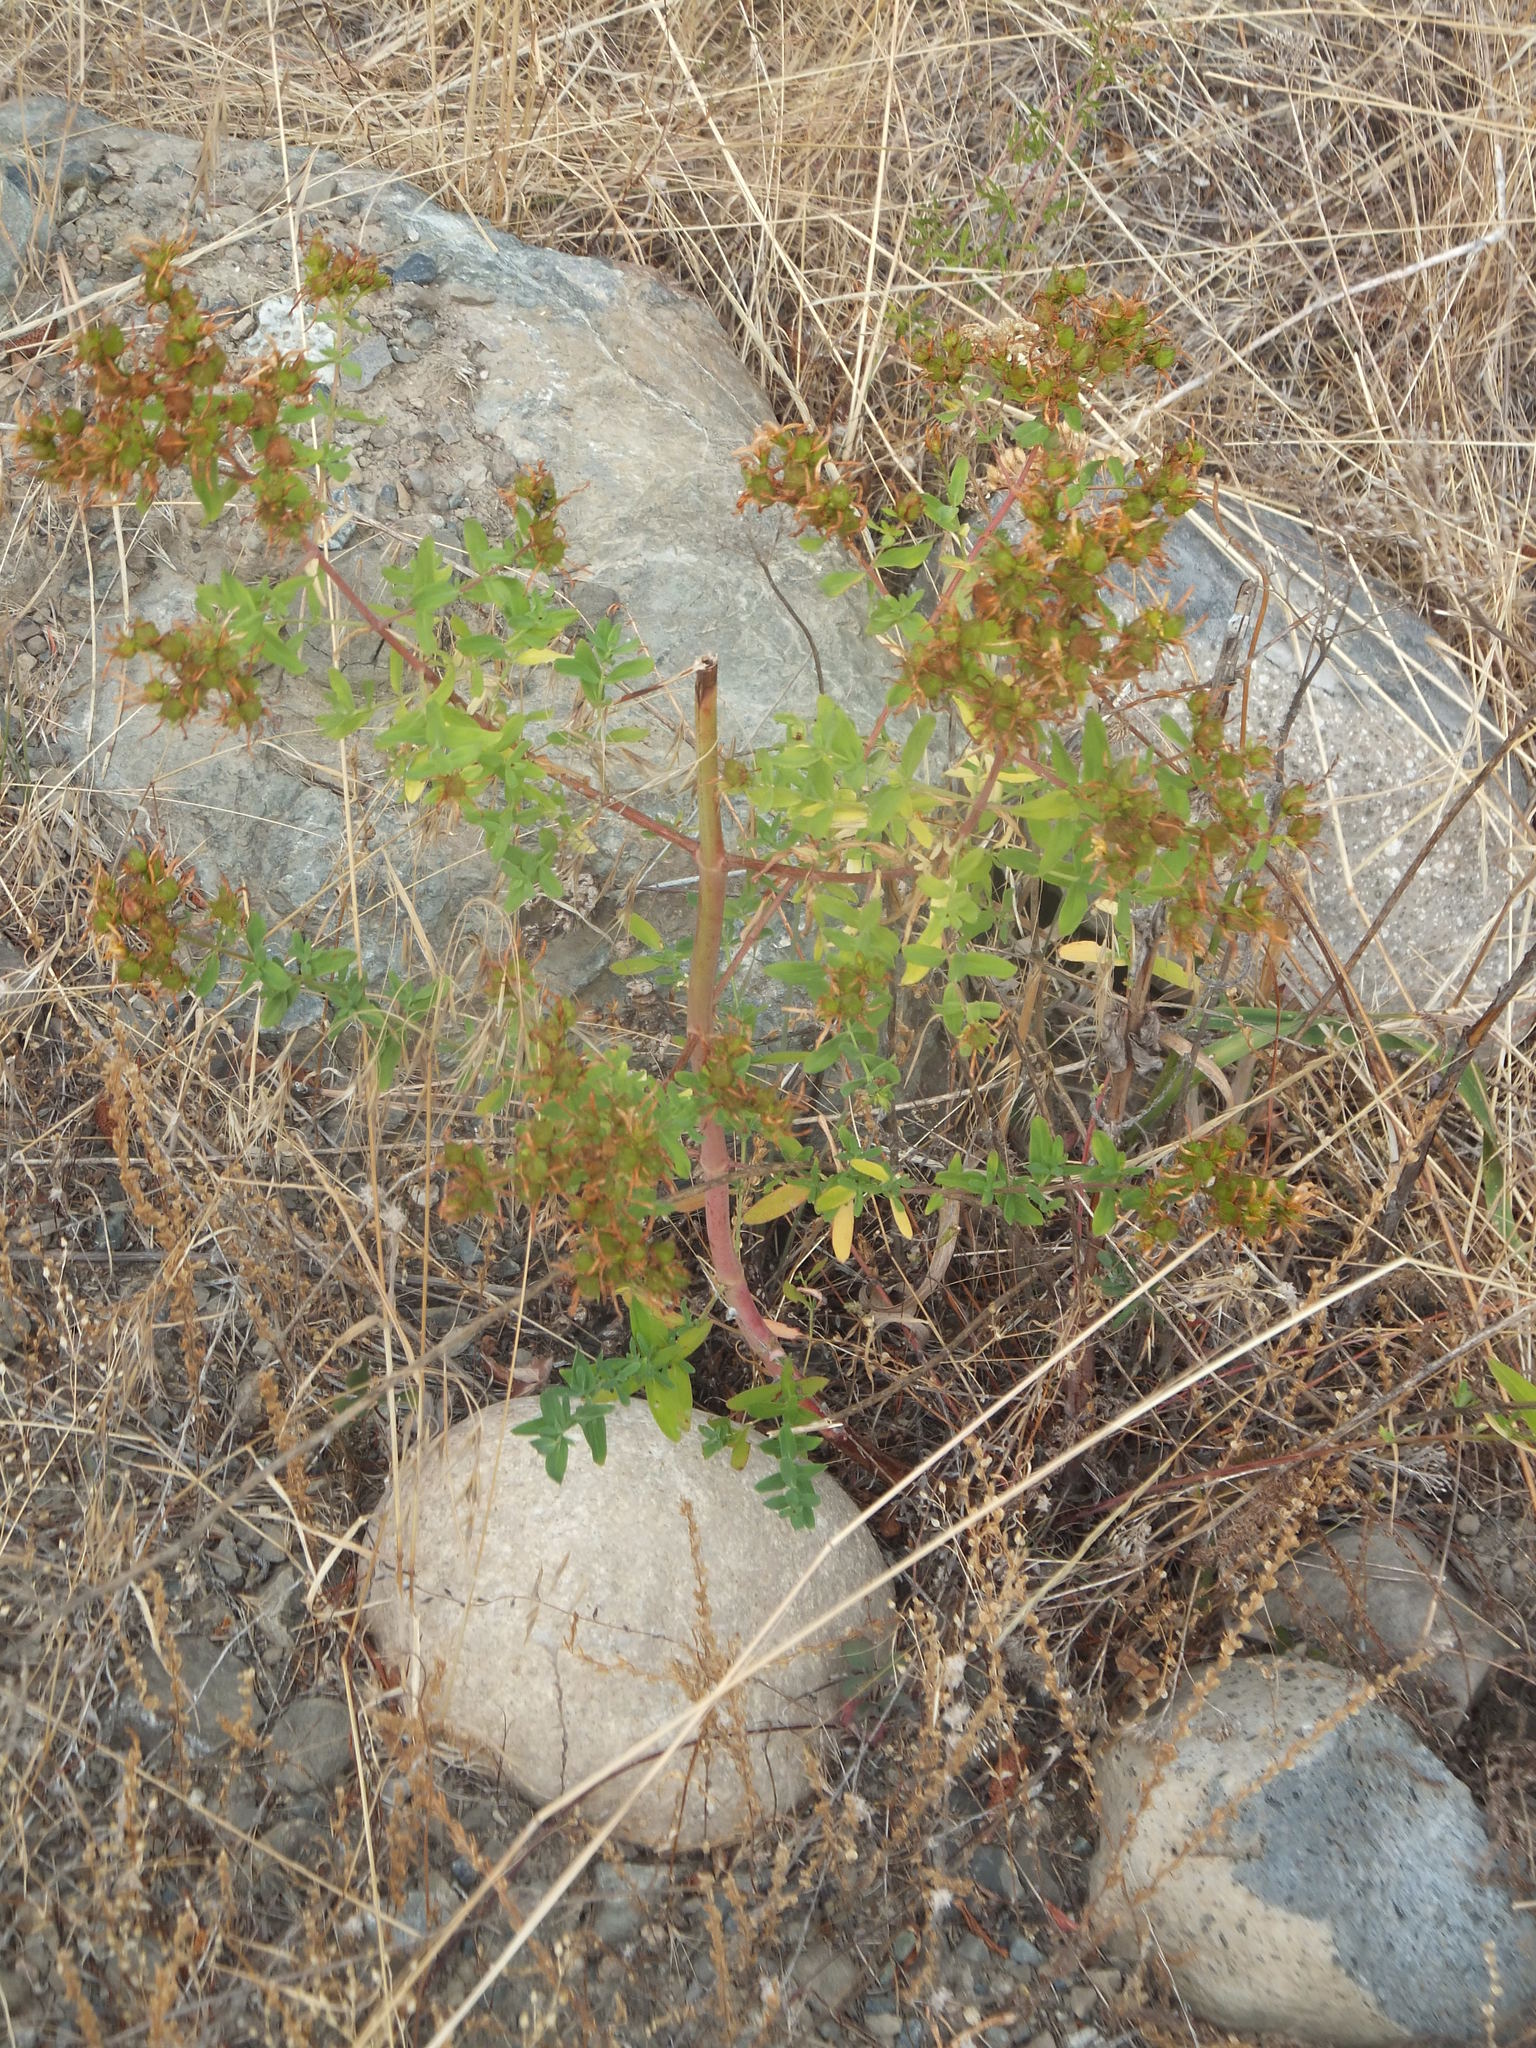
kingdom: Plantae
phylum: Tracheophyta
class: Magnoliopsida
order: Malpighiales
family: Hypericaceae
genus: Hypericum
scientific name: Hypericum perforatum
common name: Common st. johnswort
